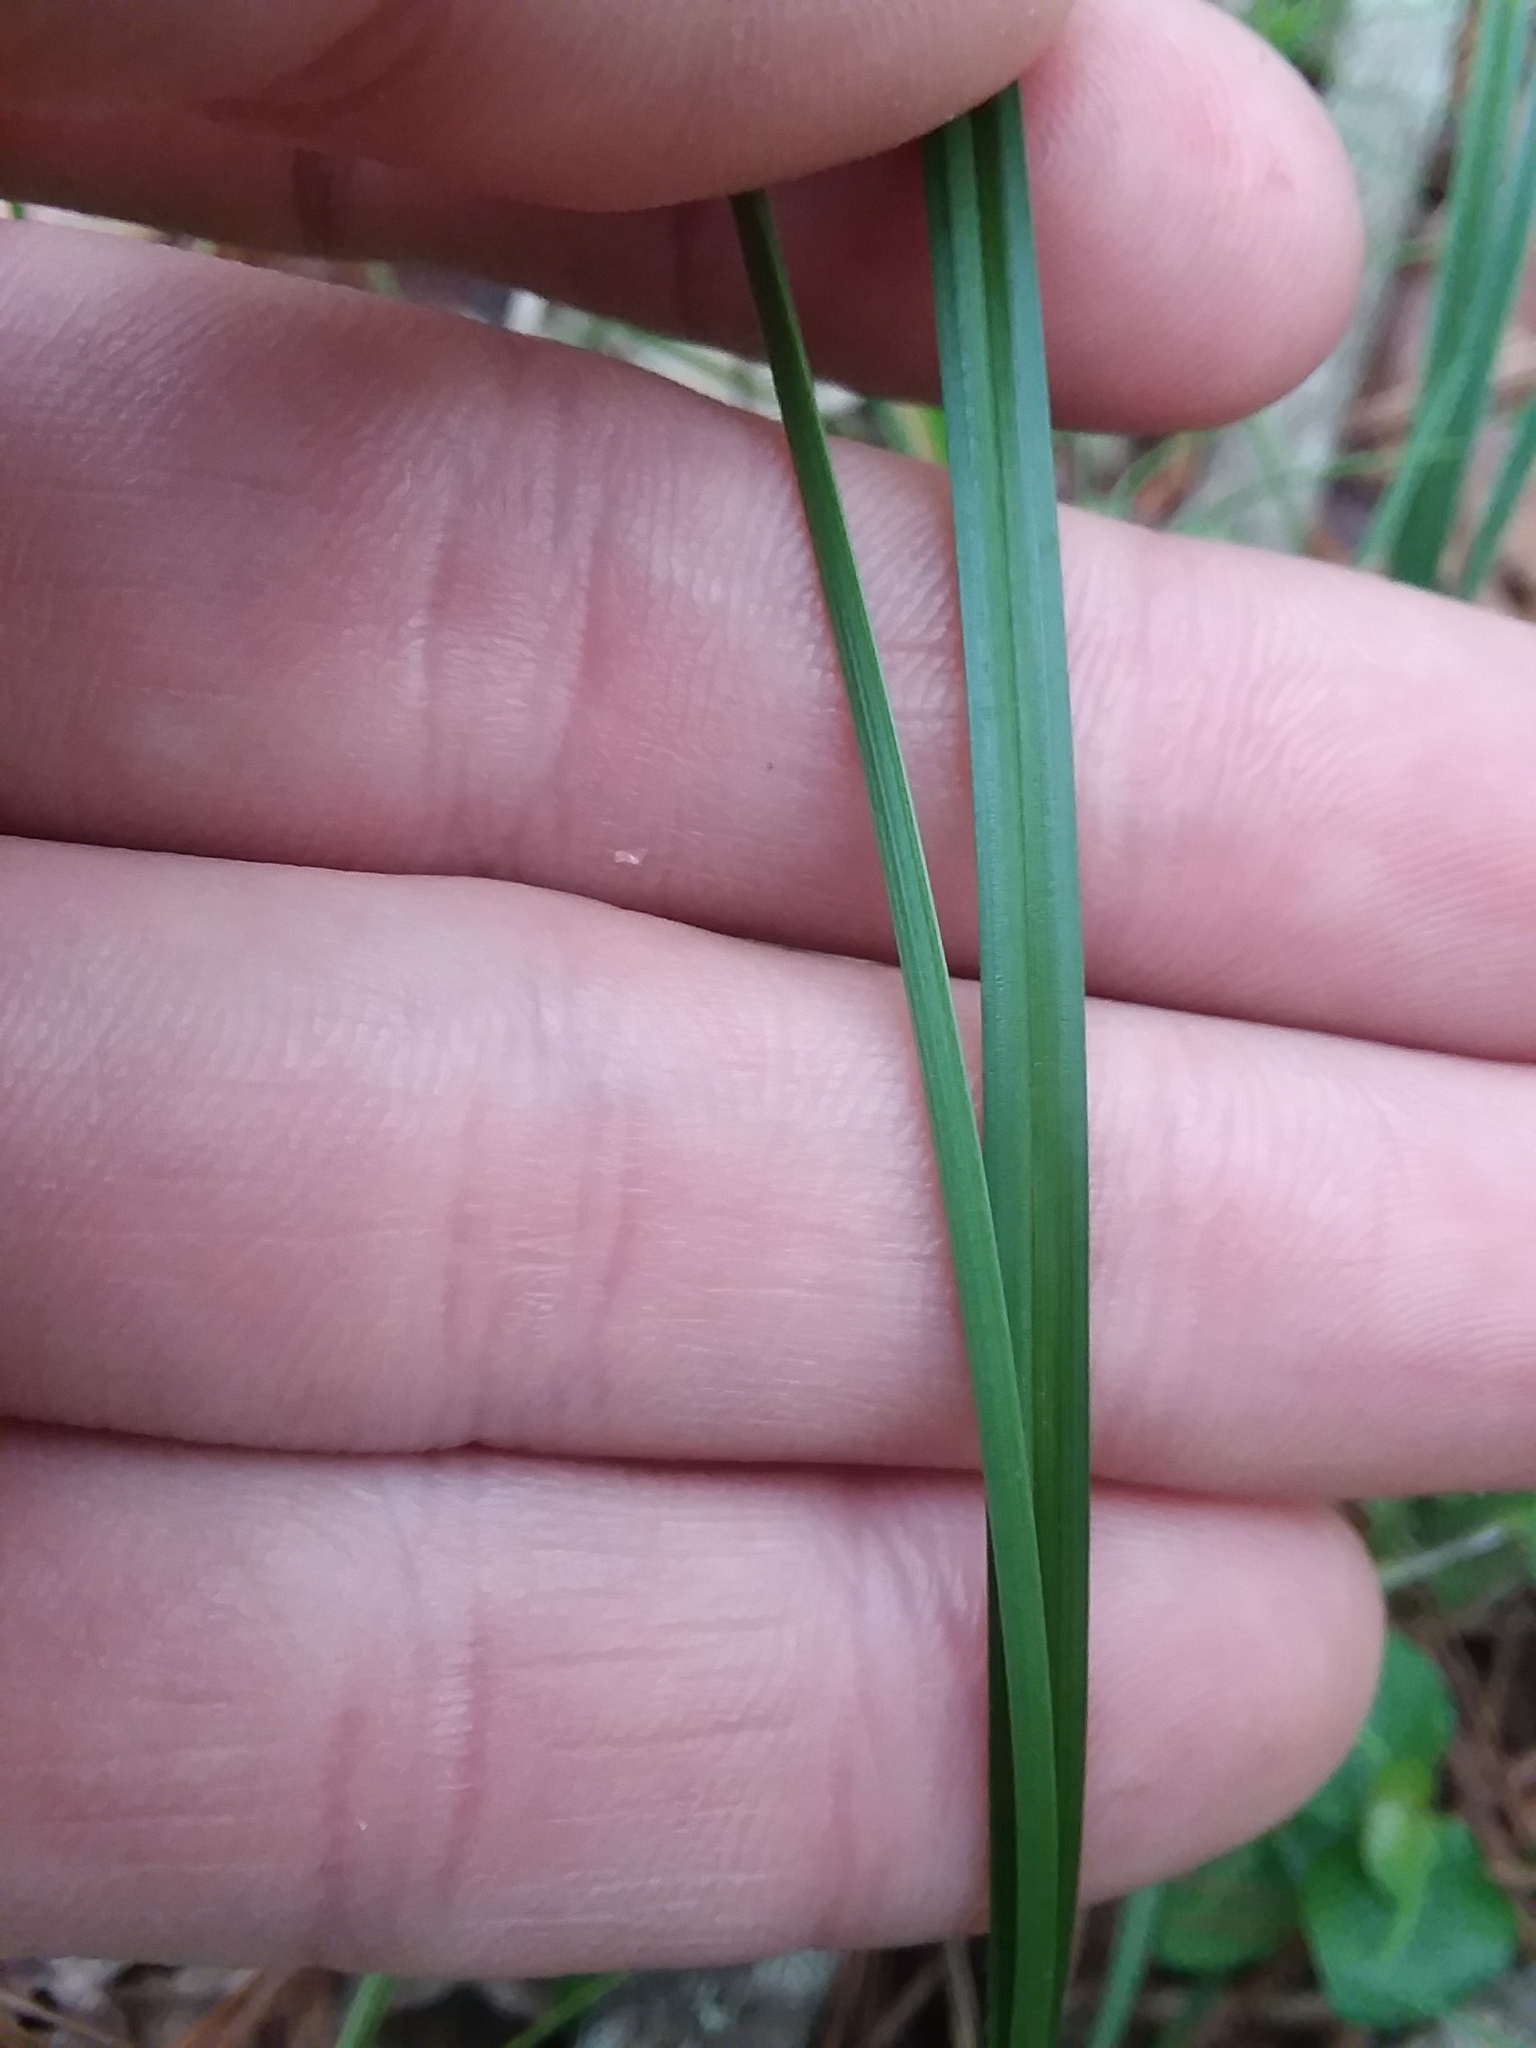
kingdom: Plantae
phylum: Tracheophyta
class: Liliopsida
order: Poales
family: Cyperaceae
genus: Carex
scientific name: Carex complanata
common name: Hirsute sedge
